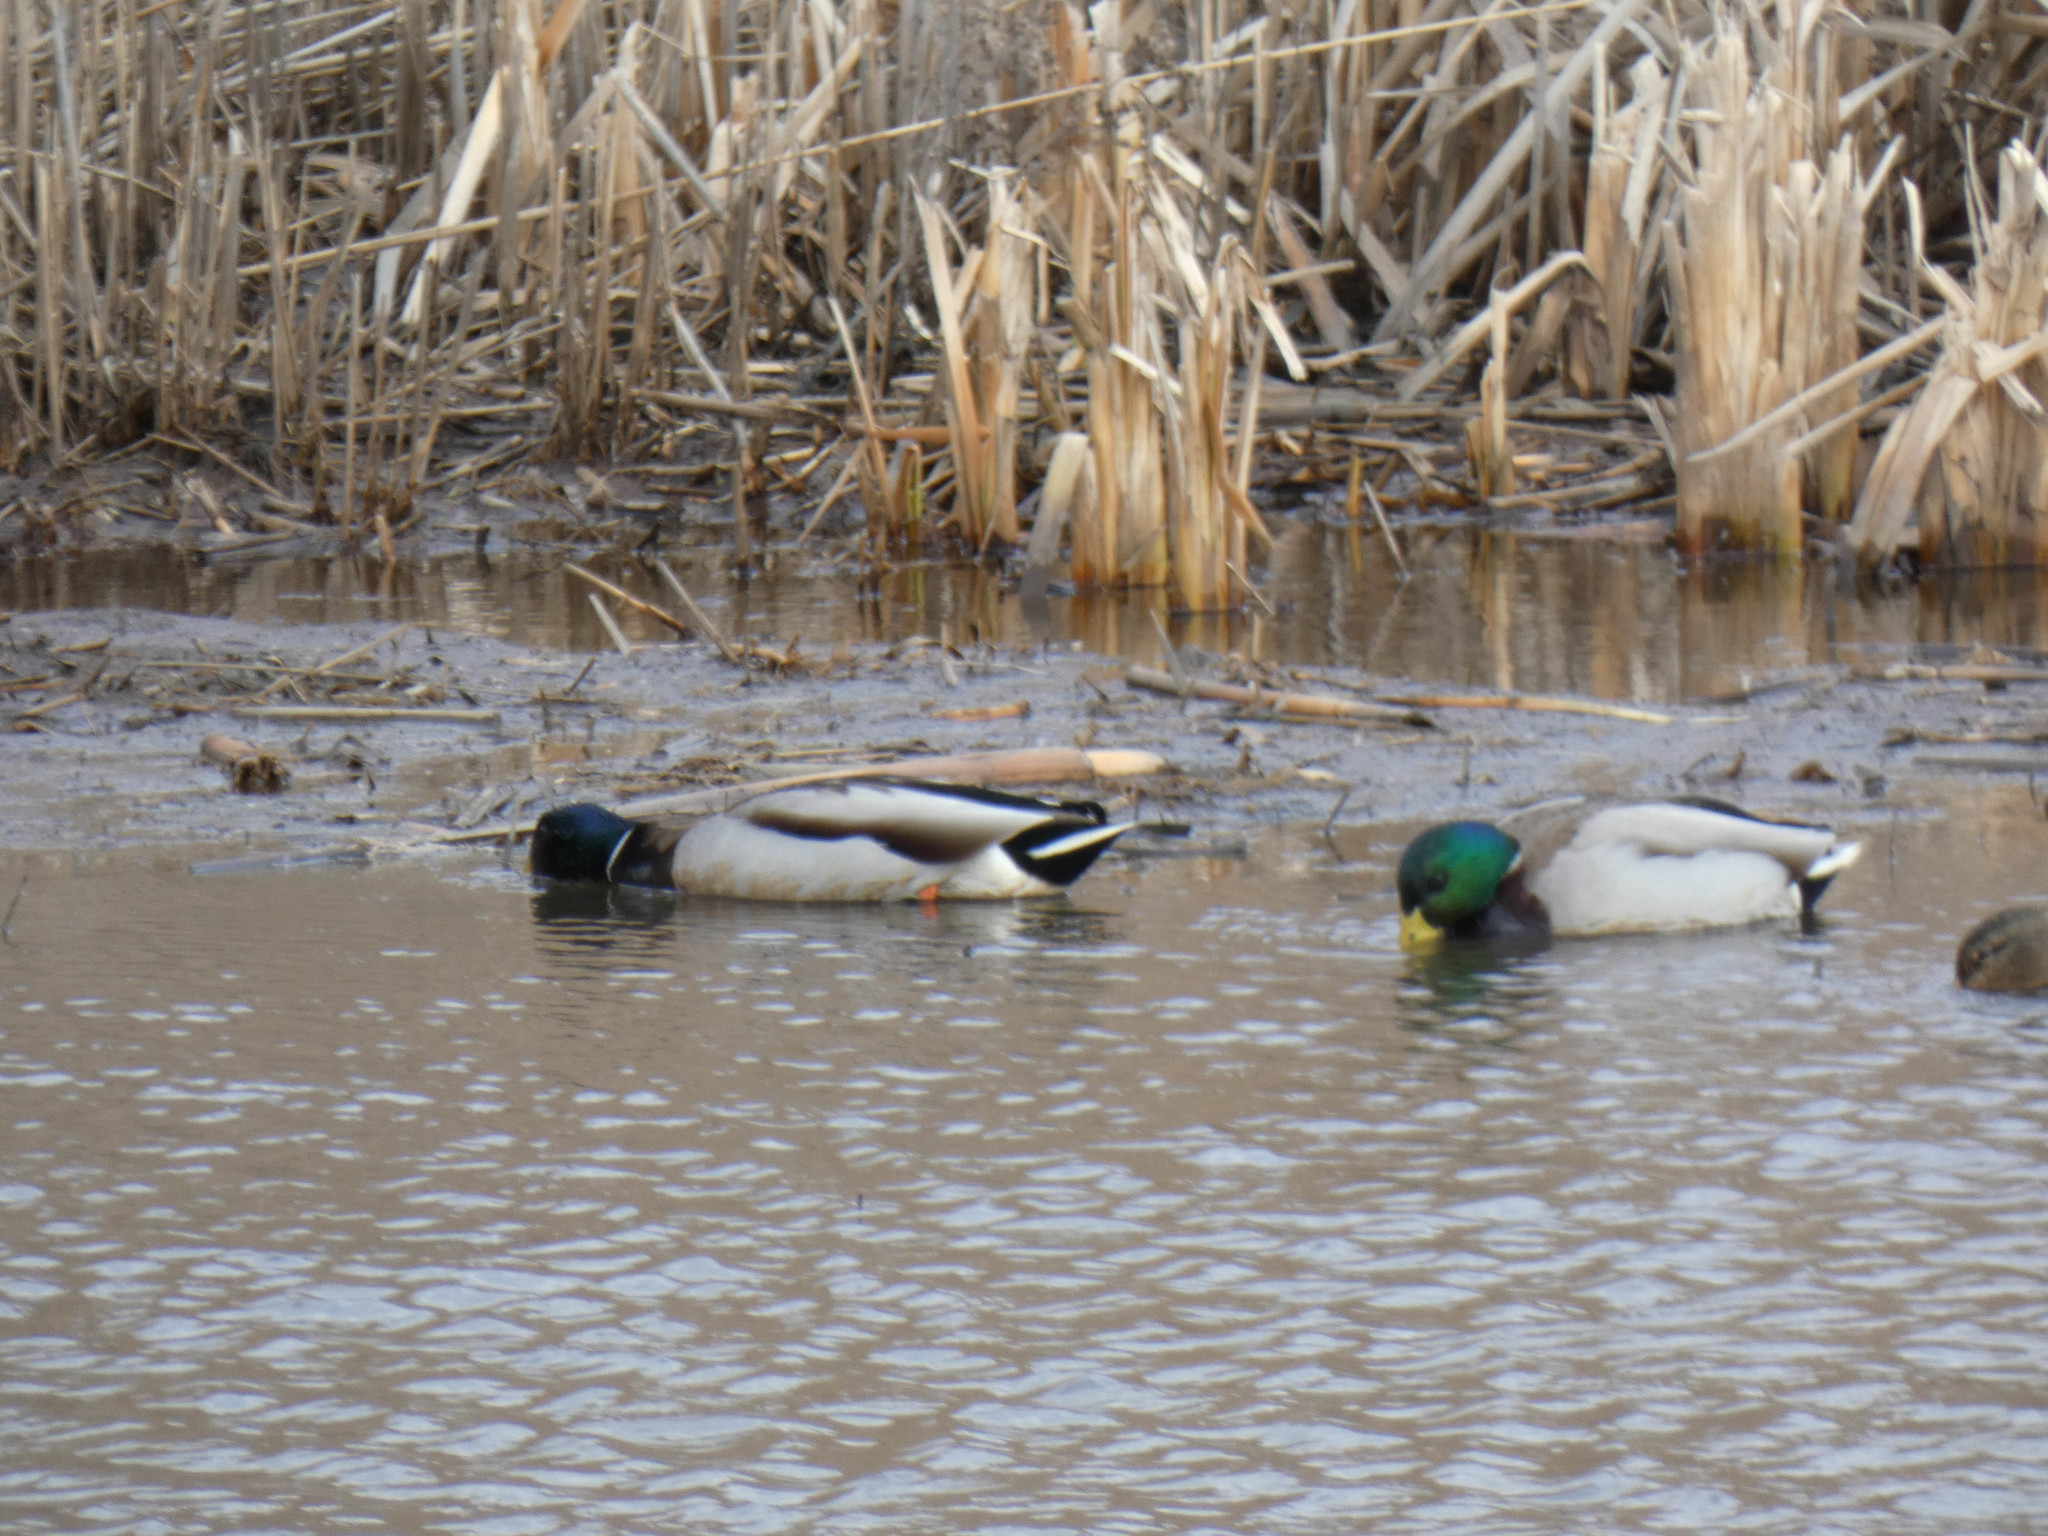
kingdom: Animalia
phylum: Chordata
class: Aves
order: Anseriformes
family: Anatidae
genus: Anas
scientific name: Anas platyrhynchos
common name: Mallard
